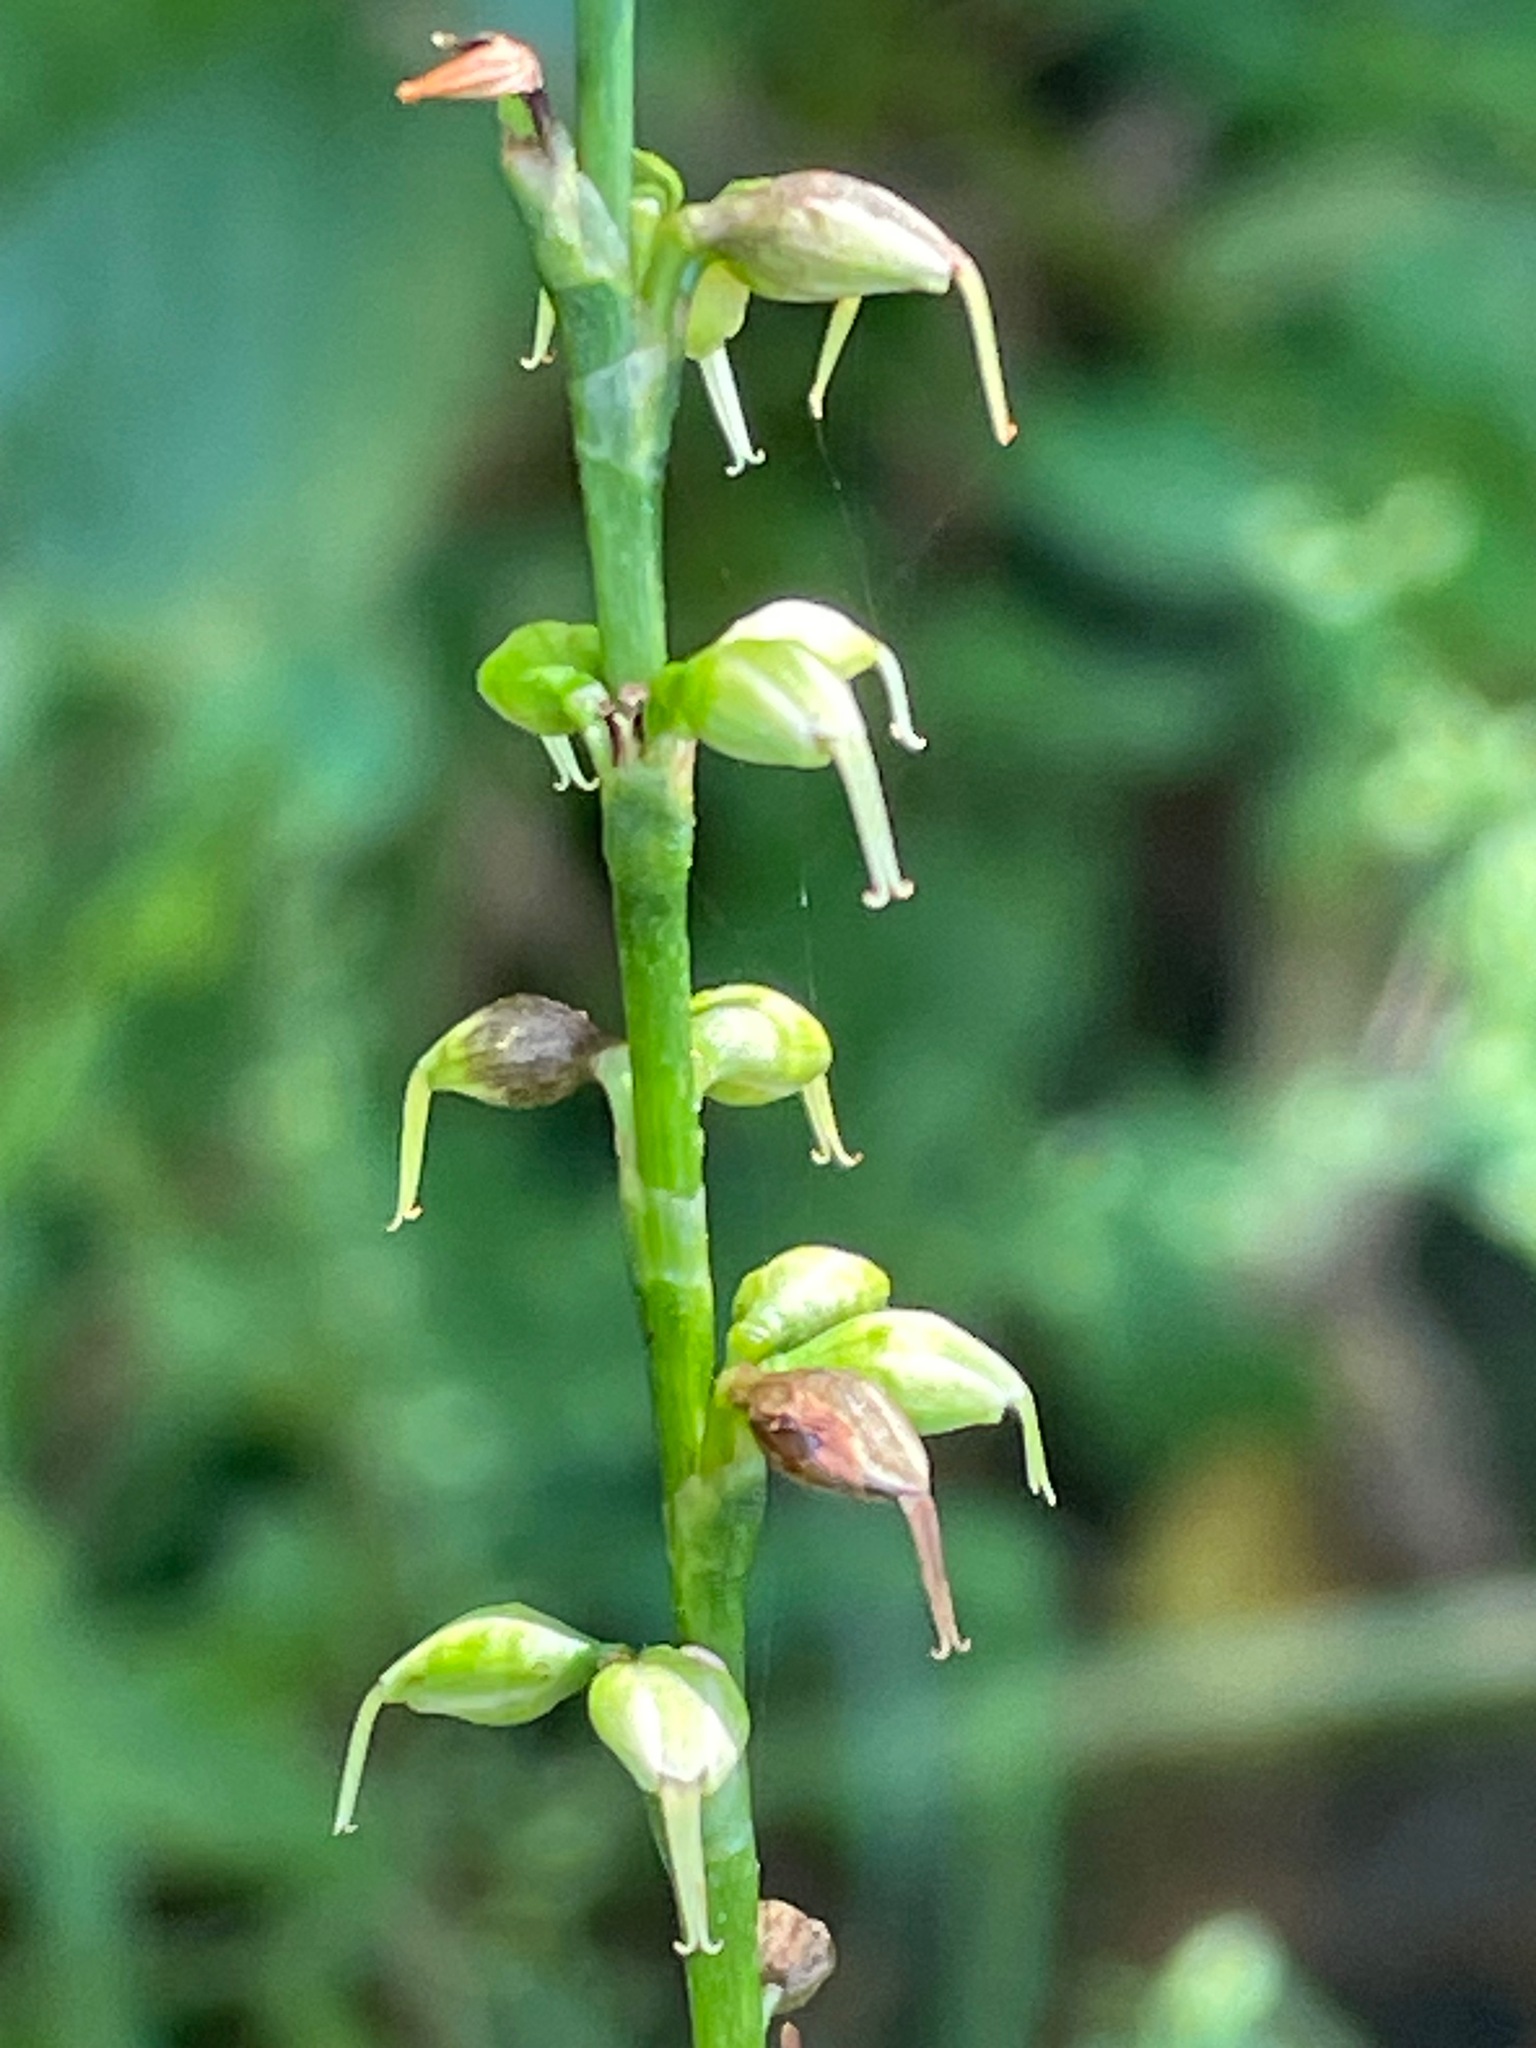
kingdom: Plantae
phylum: Tracheophyta
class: Magnoliopsida
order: Caryophyllales
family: Polygonaceae
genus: Persicaria
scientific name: Persicaria virginiana
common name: Jumpseed
